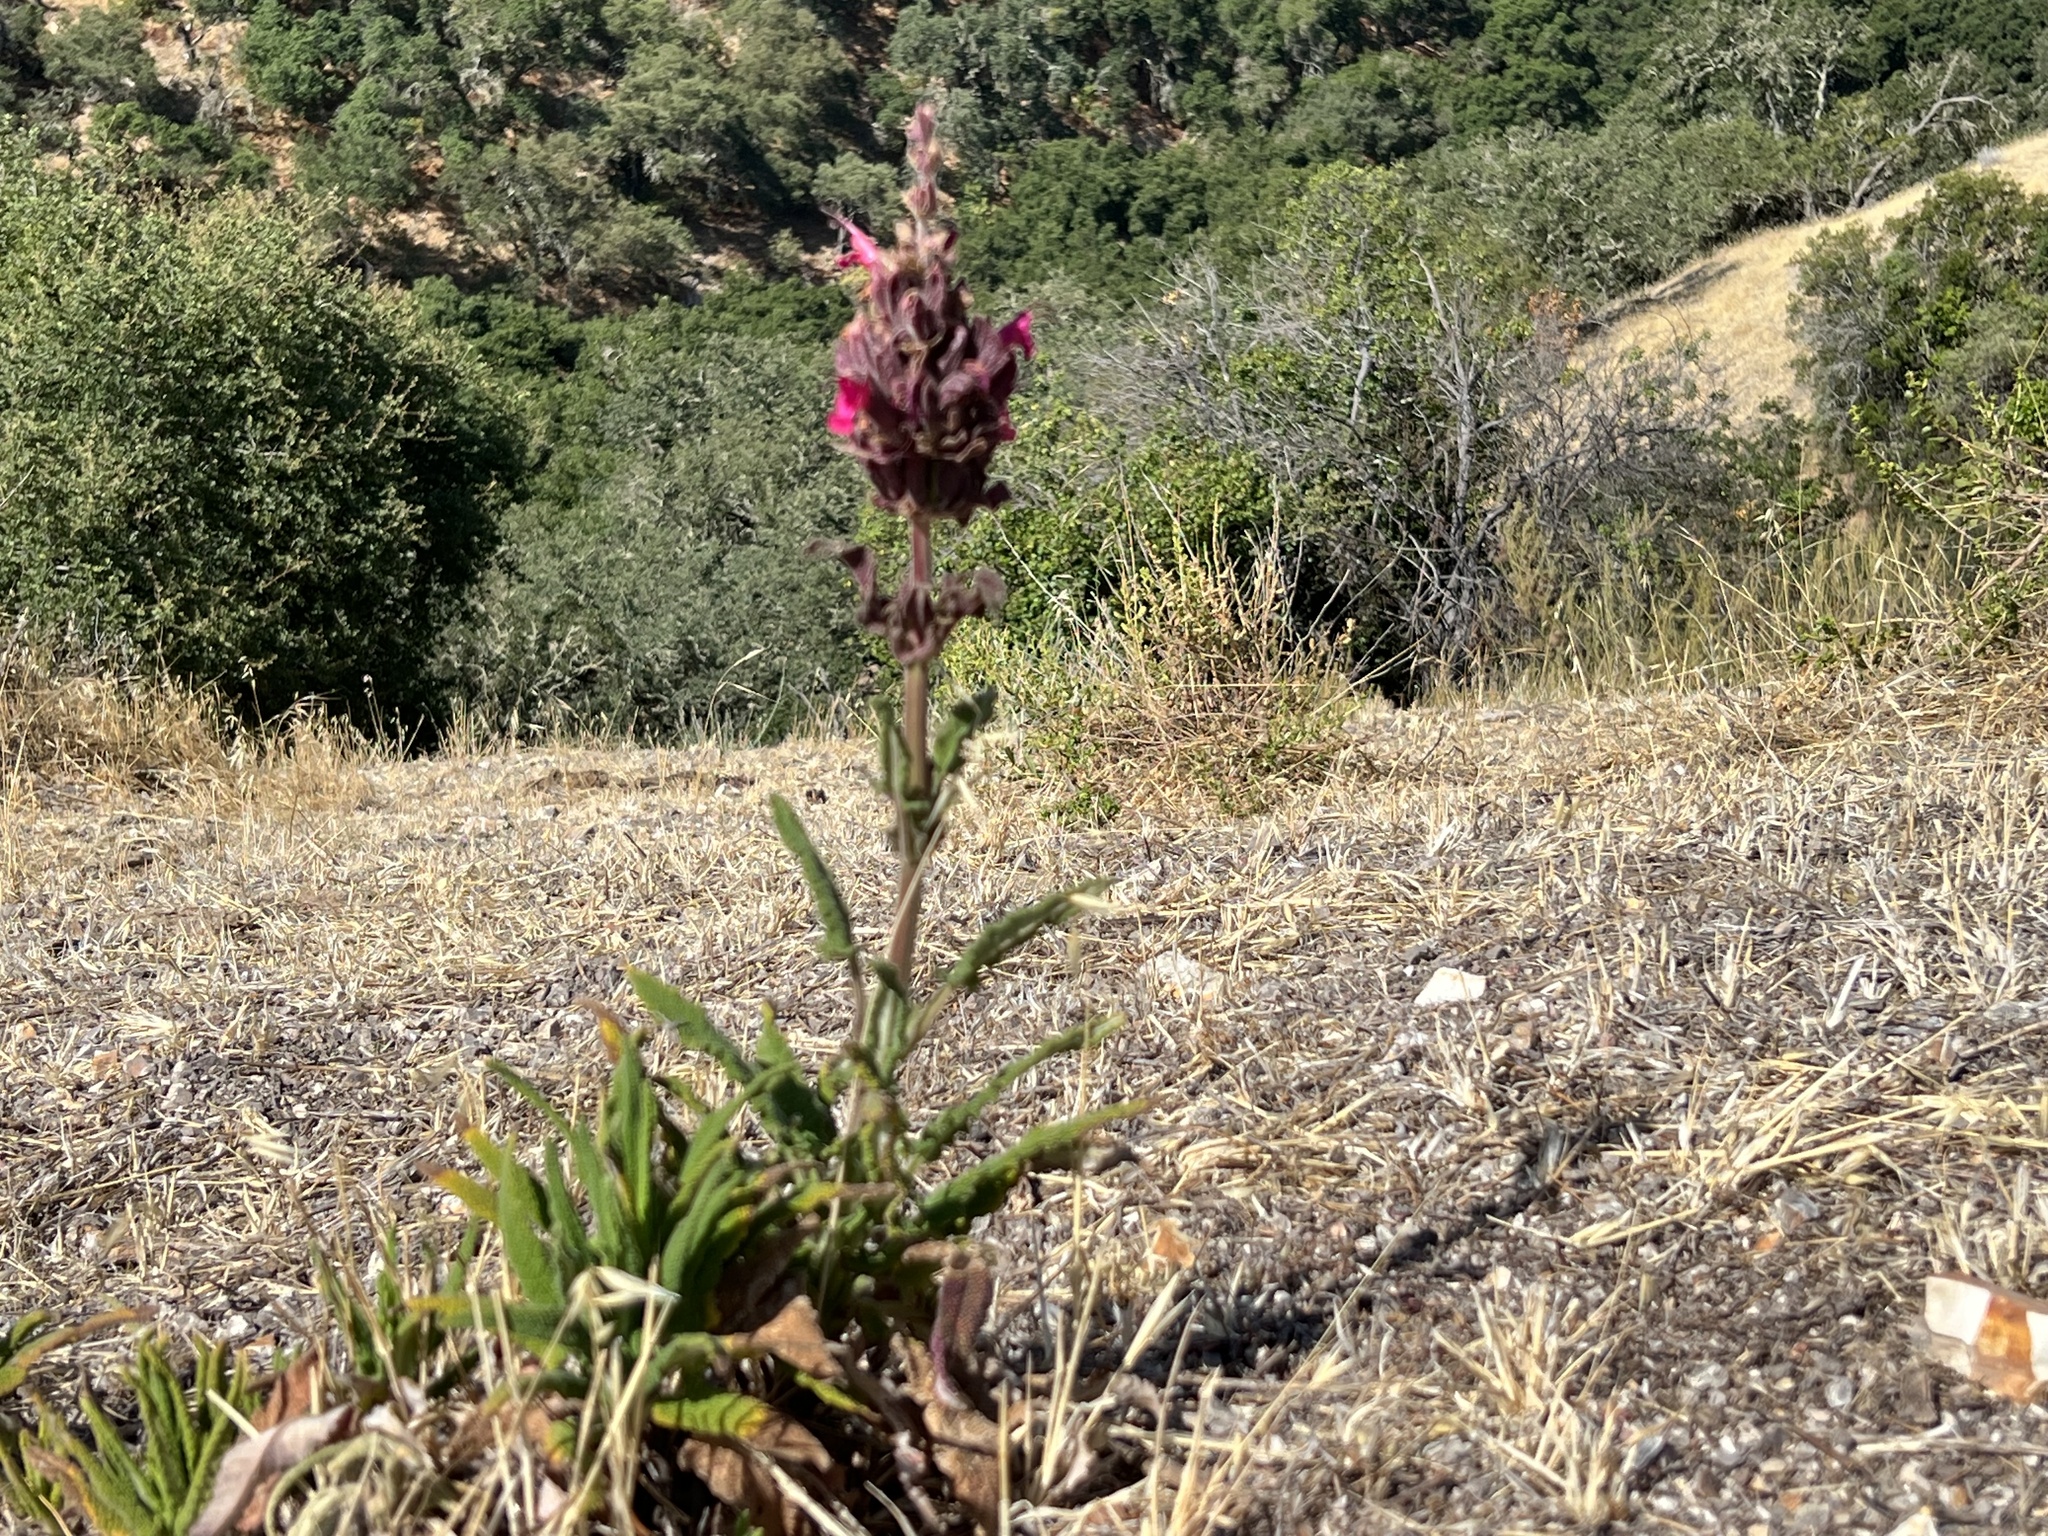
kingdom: Plantae
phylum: Tracheophyta
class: Magnoliopsida
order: Lamiales
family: Lamiaceae
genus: Salvia
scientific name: Salvia spathacea
